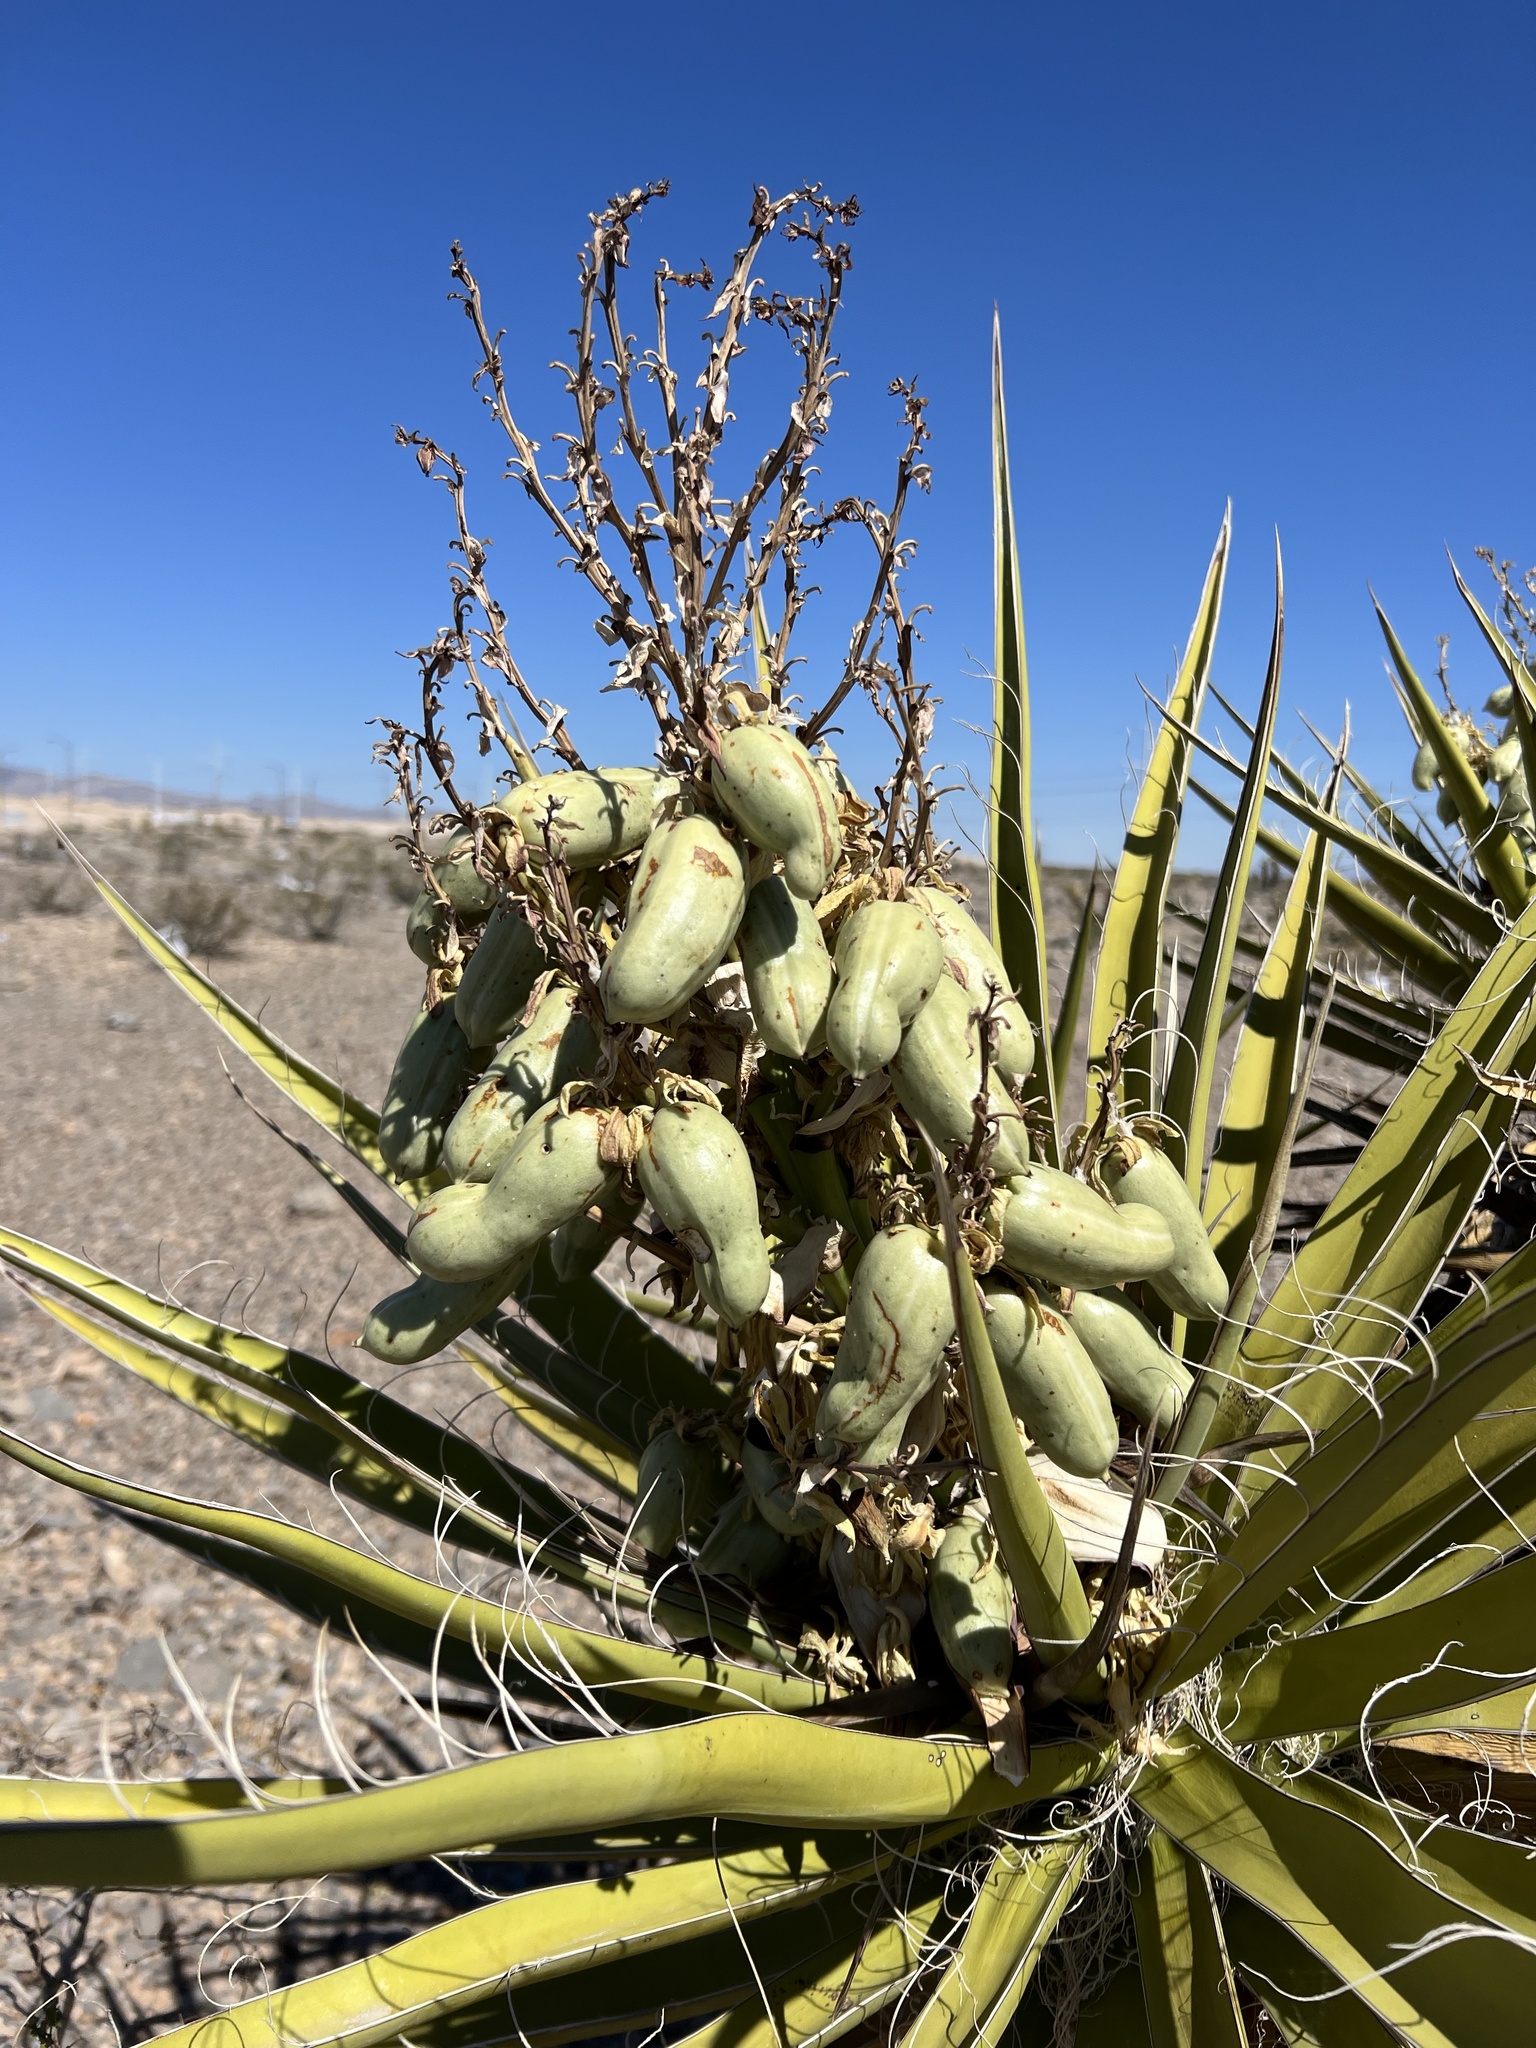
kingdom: Plantae
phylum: Tracheophyta
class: Liliopsida
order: Asparagales
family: Asparagaceae
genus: Yucca
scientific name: Yucca schidigera
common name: Mojave yucca
